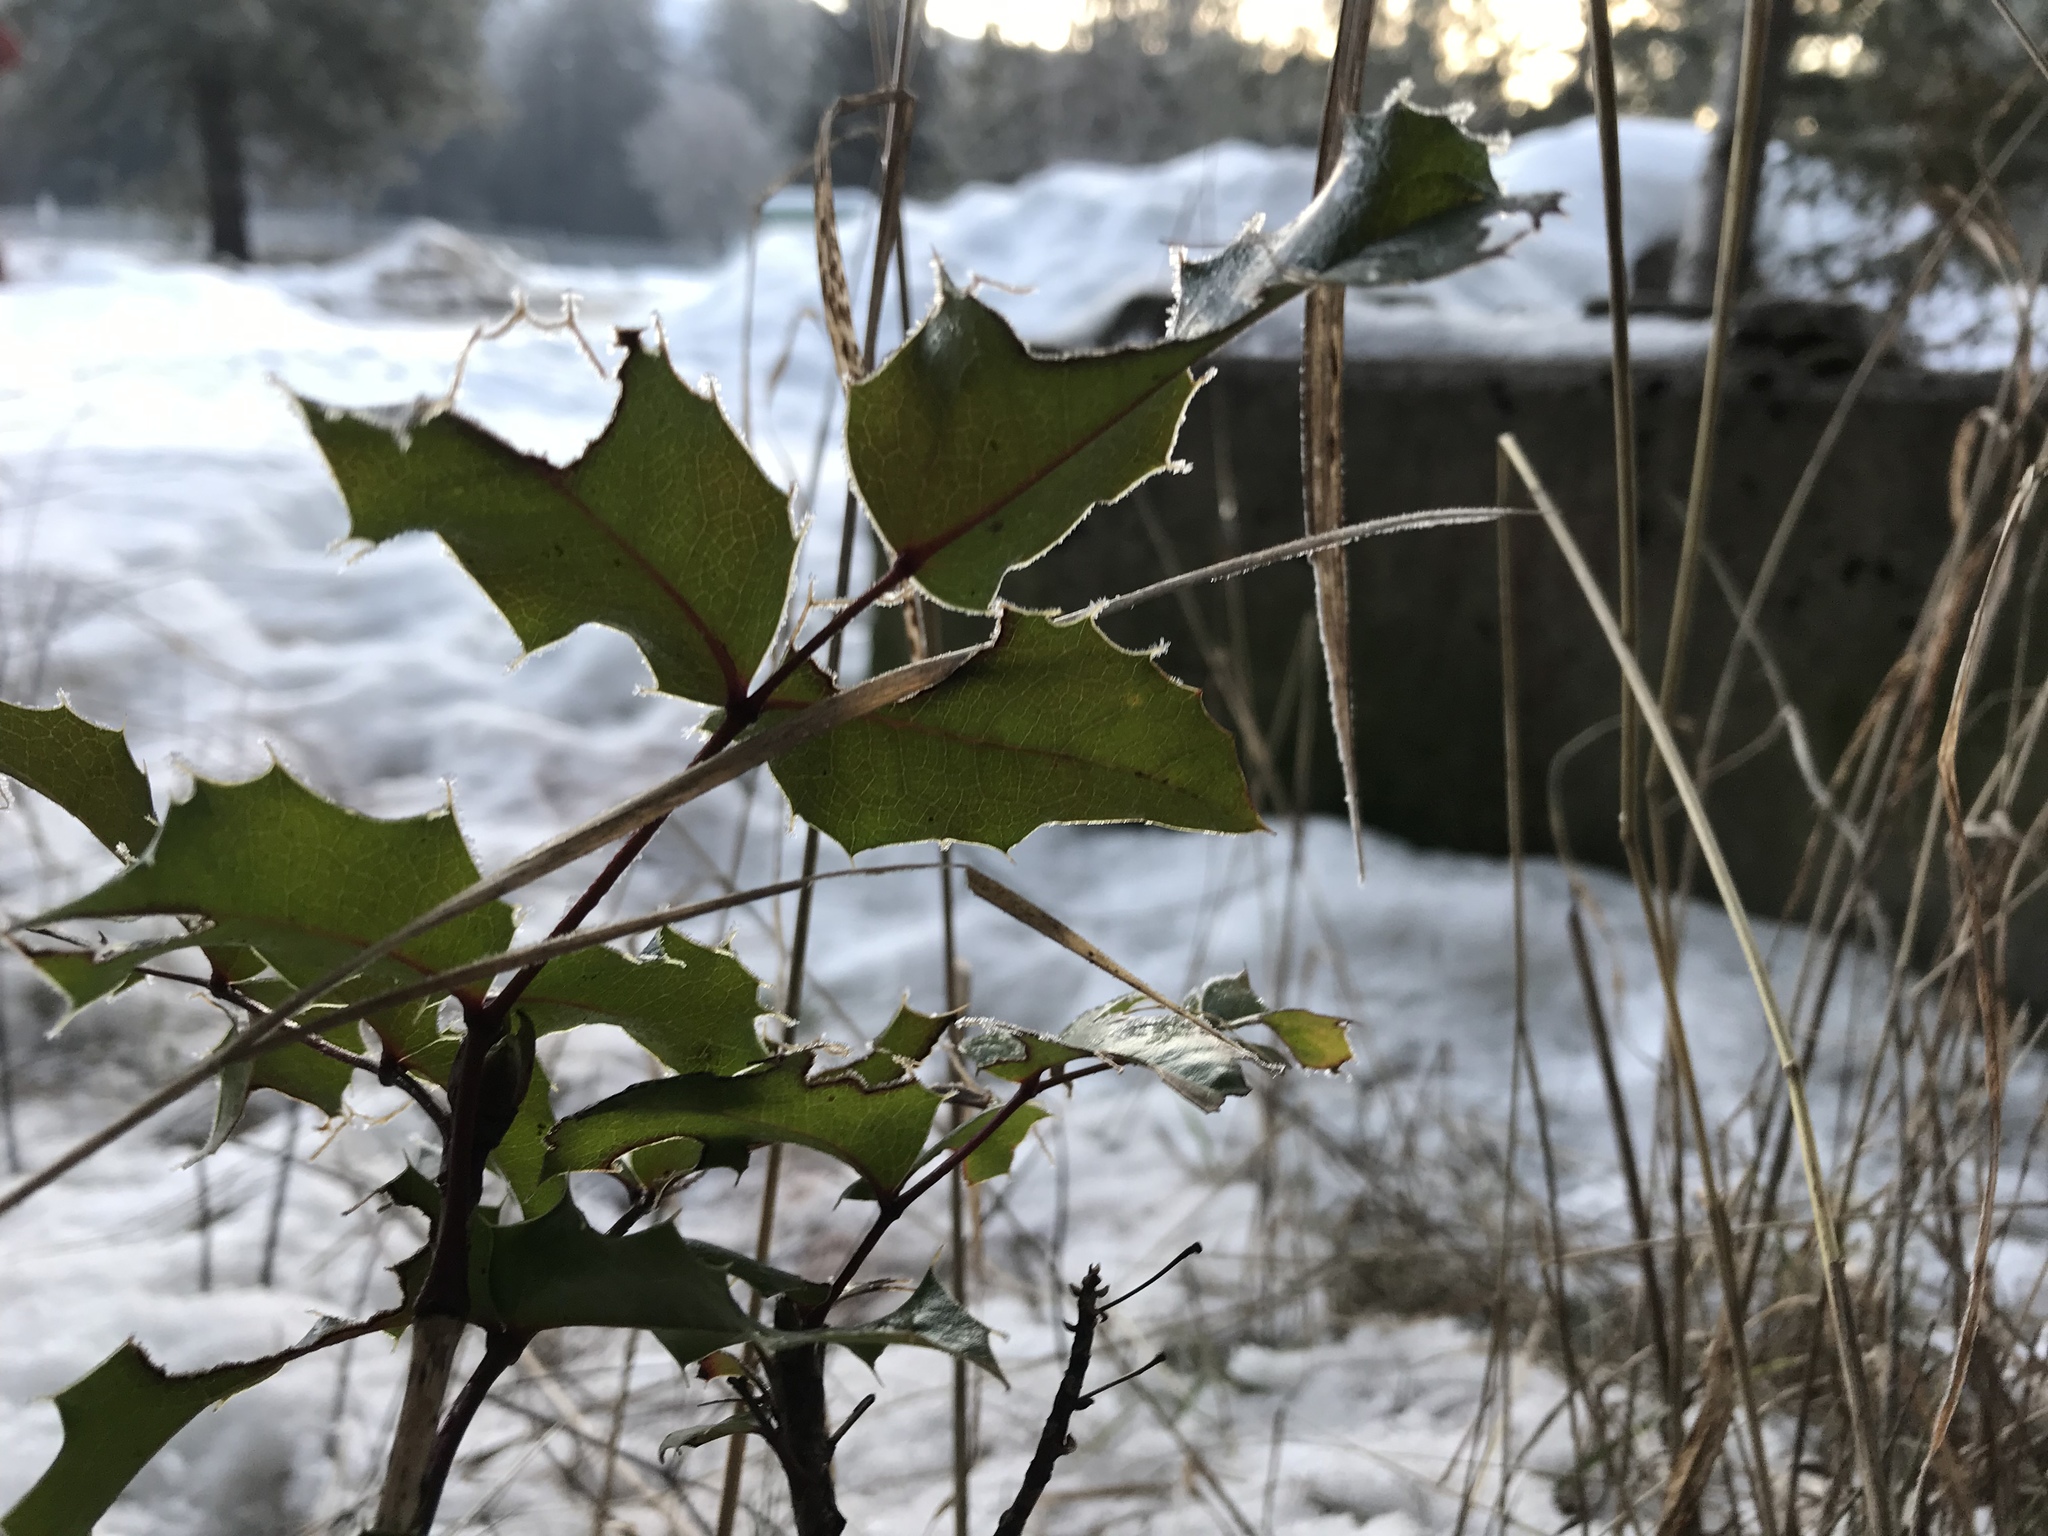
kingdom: Plantae
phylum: Tracheophyta
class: Magnoliopsida
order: Ranunculales
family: Berberidaceae
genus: Mahonia
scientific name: Mahonia aquifolium
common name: Oregon-grape
